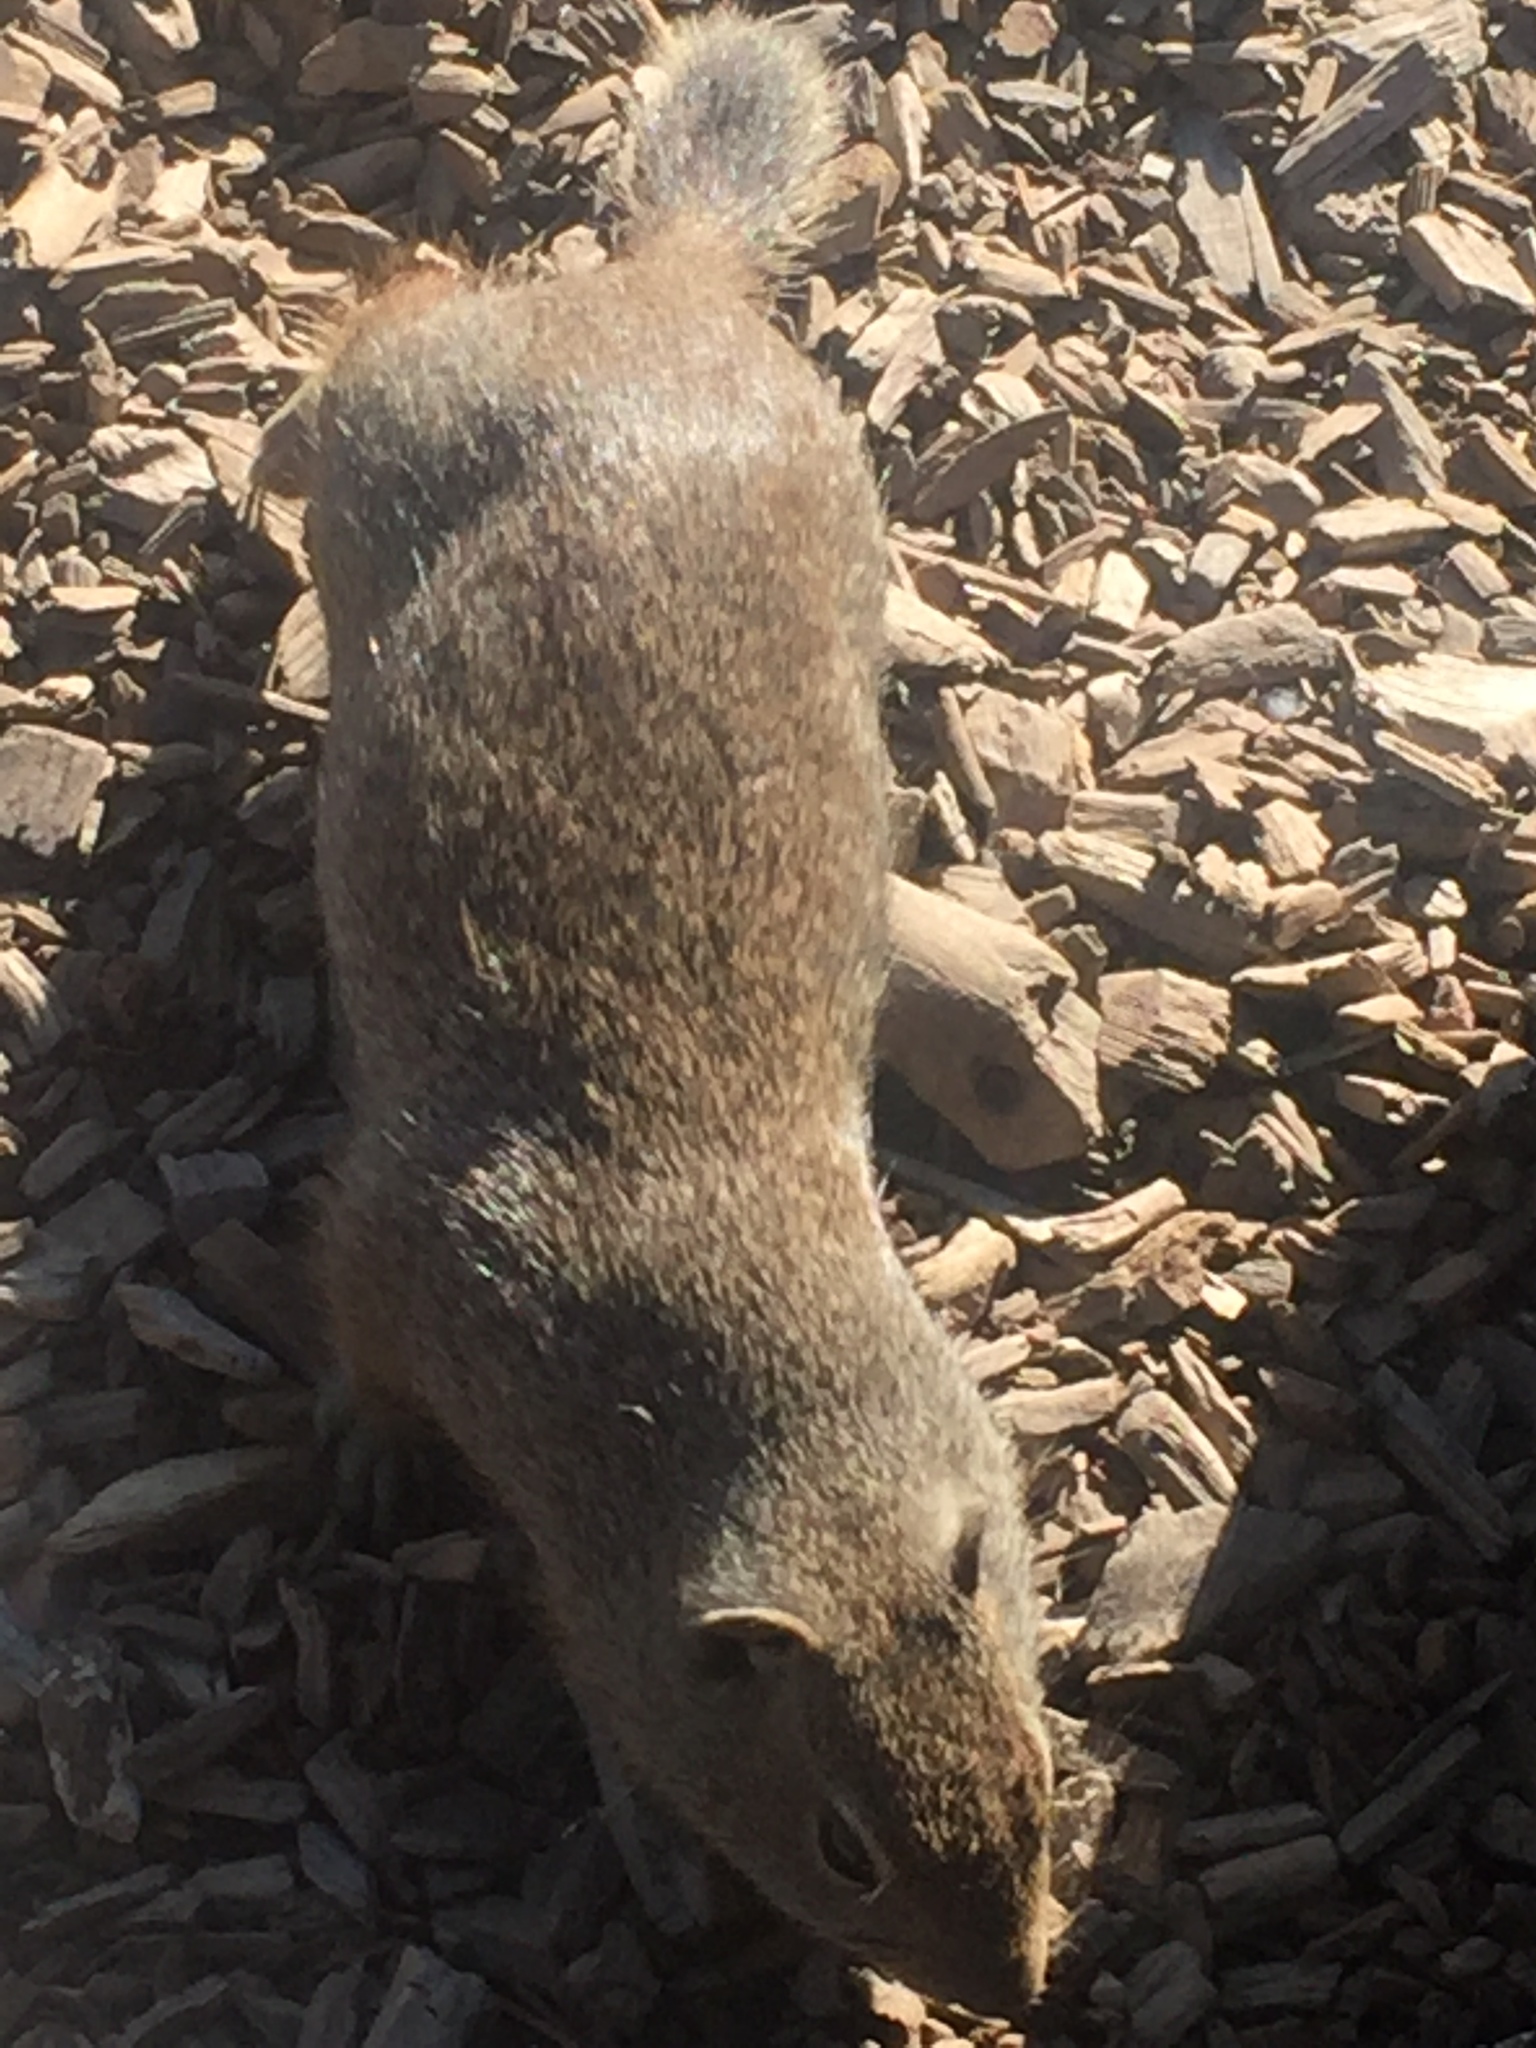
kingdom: Animalia
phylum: Chordata
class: Mammalia
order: Rodentia
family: Sciuridae
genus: Urocitellus
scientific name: Urocitellus armatus
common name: Uinta ground squirrel
